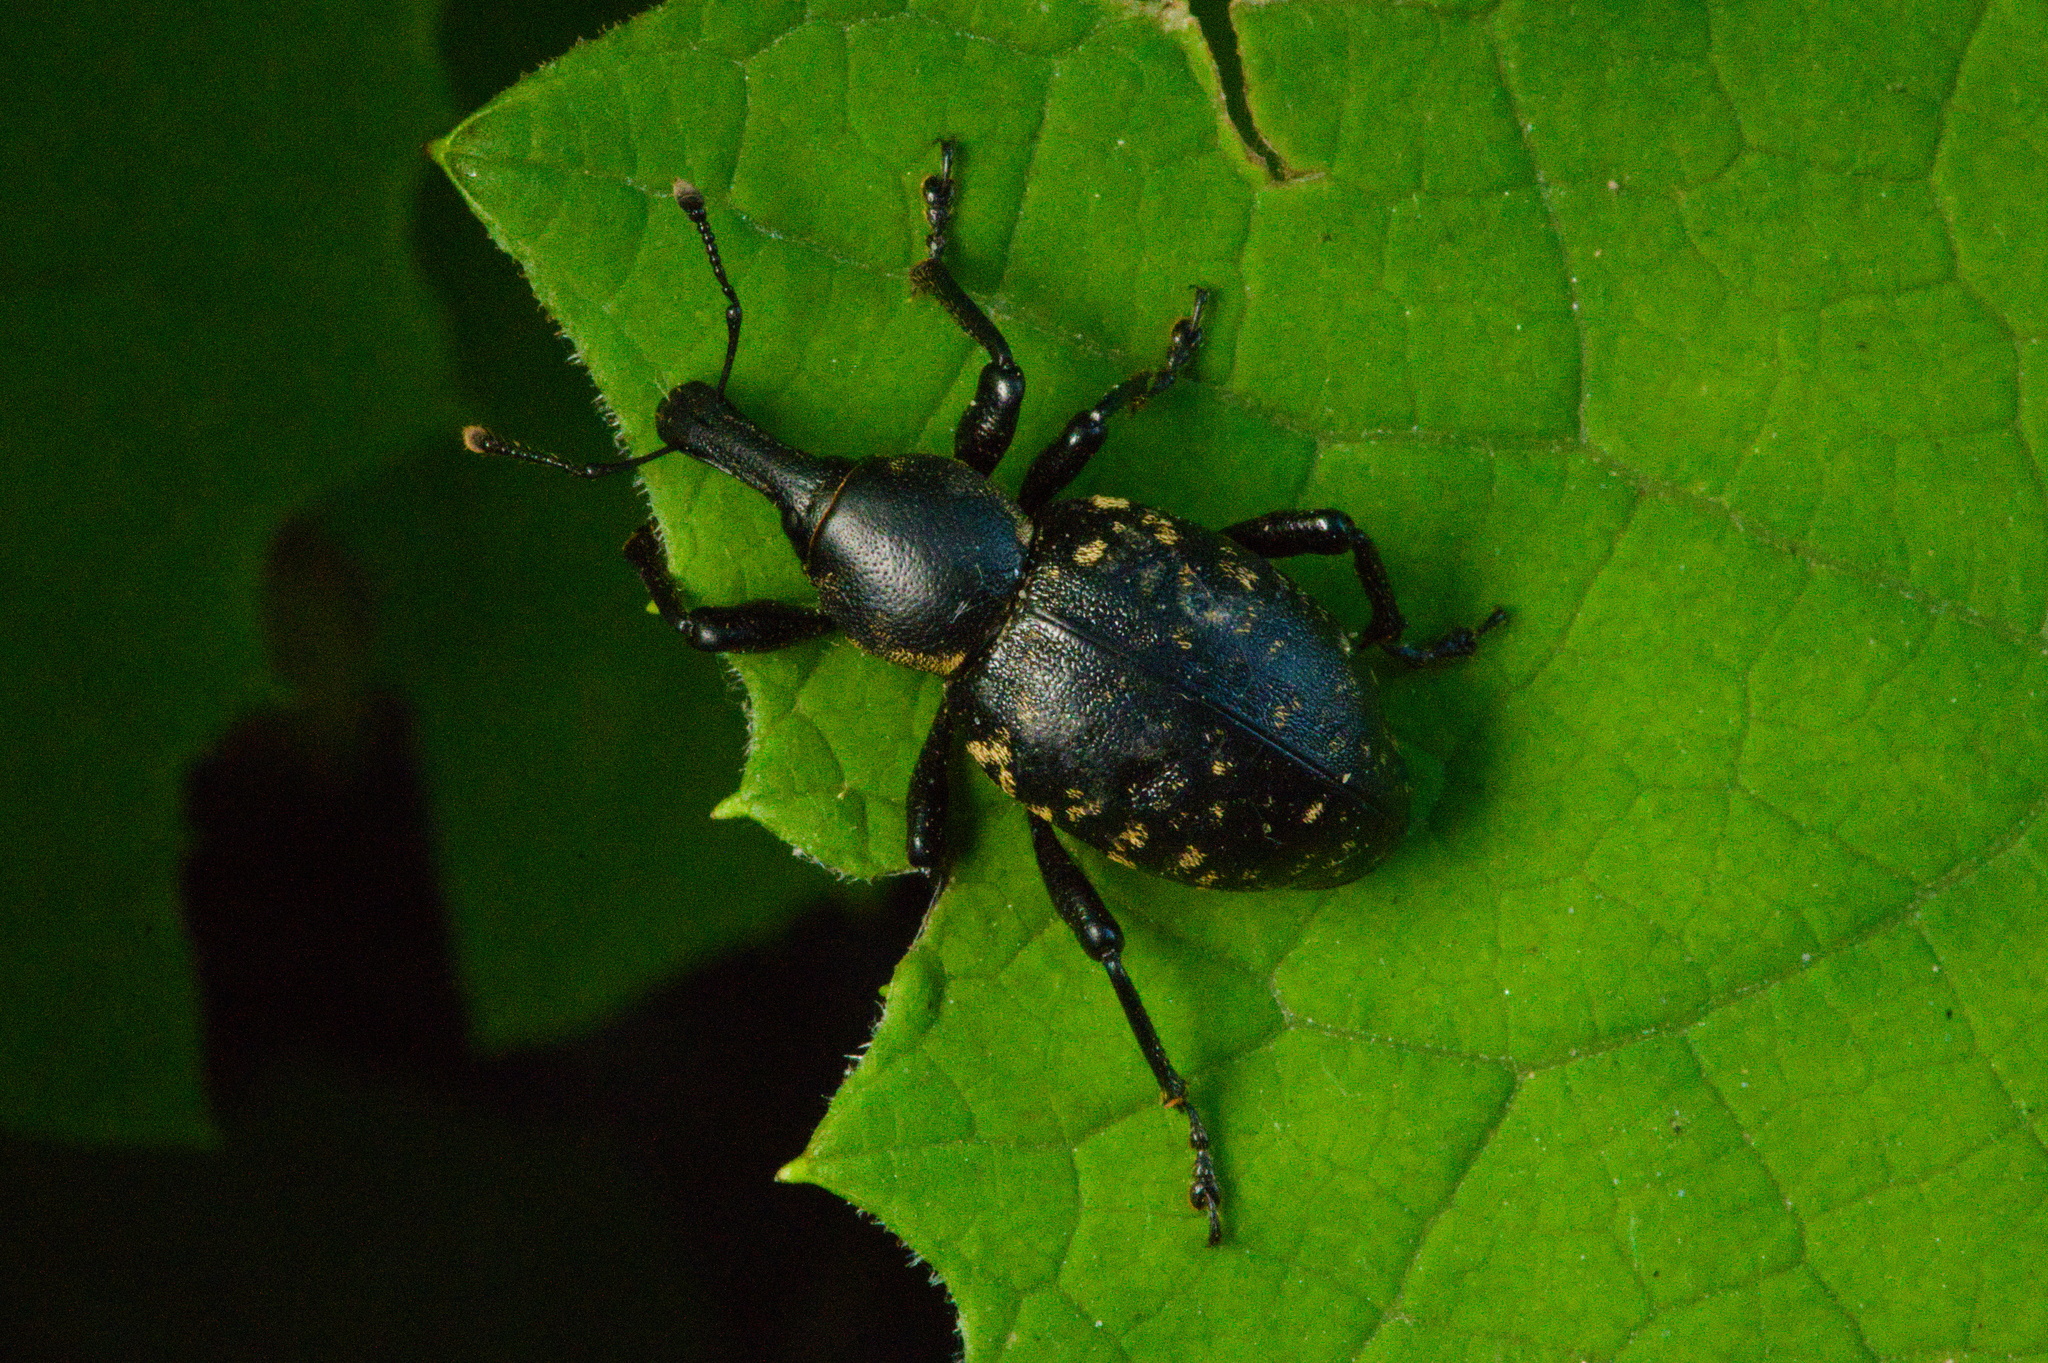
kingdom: Animalia
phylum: Arthropoda
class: Insecta
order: Coleoptera
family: Curculionidae
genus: Liparus
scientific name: Liparus glabrirostris
